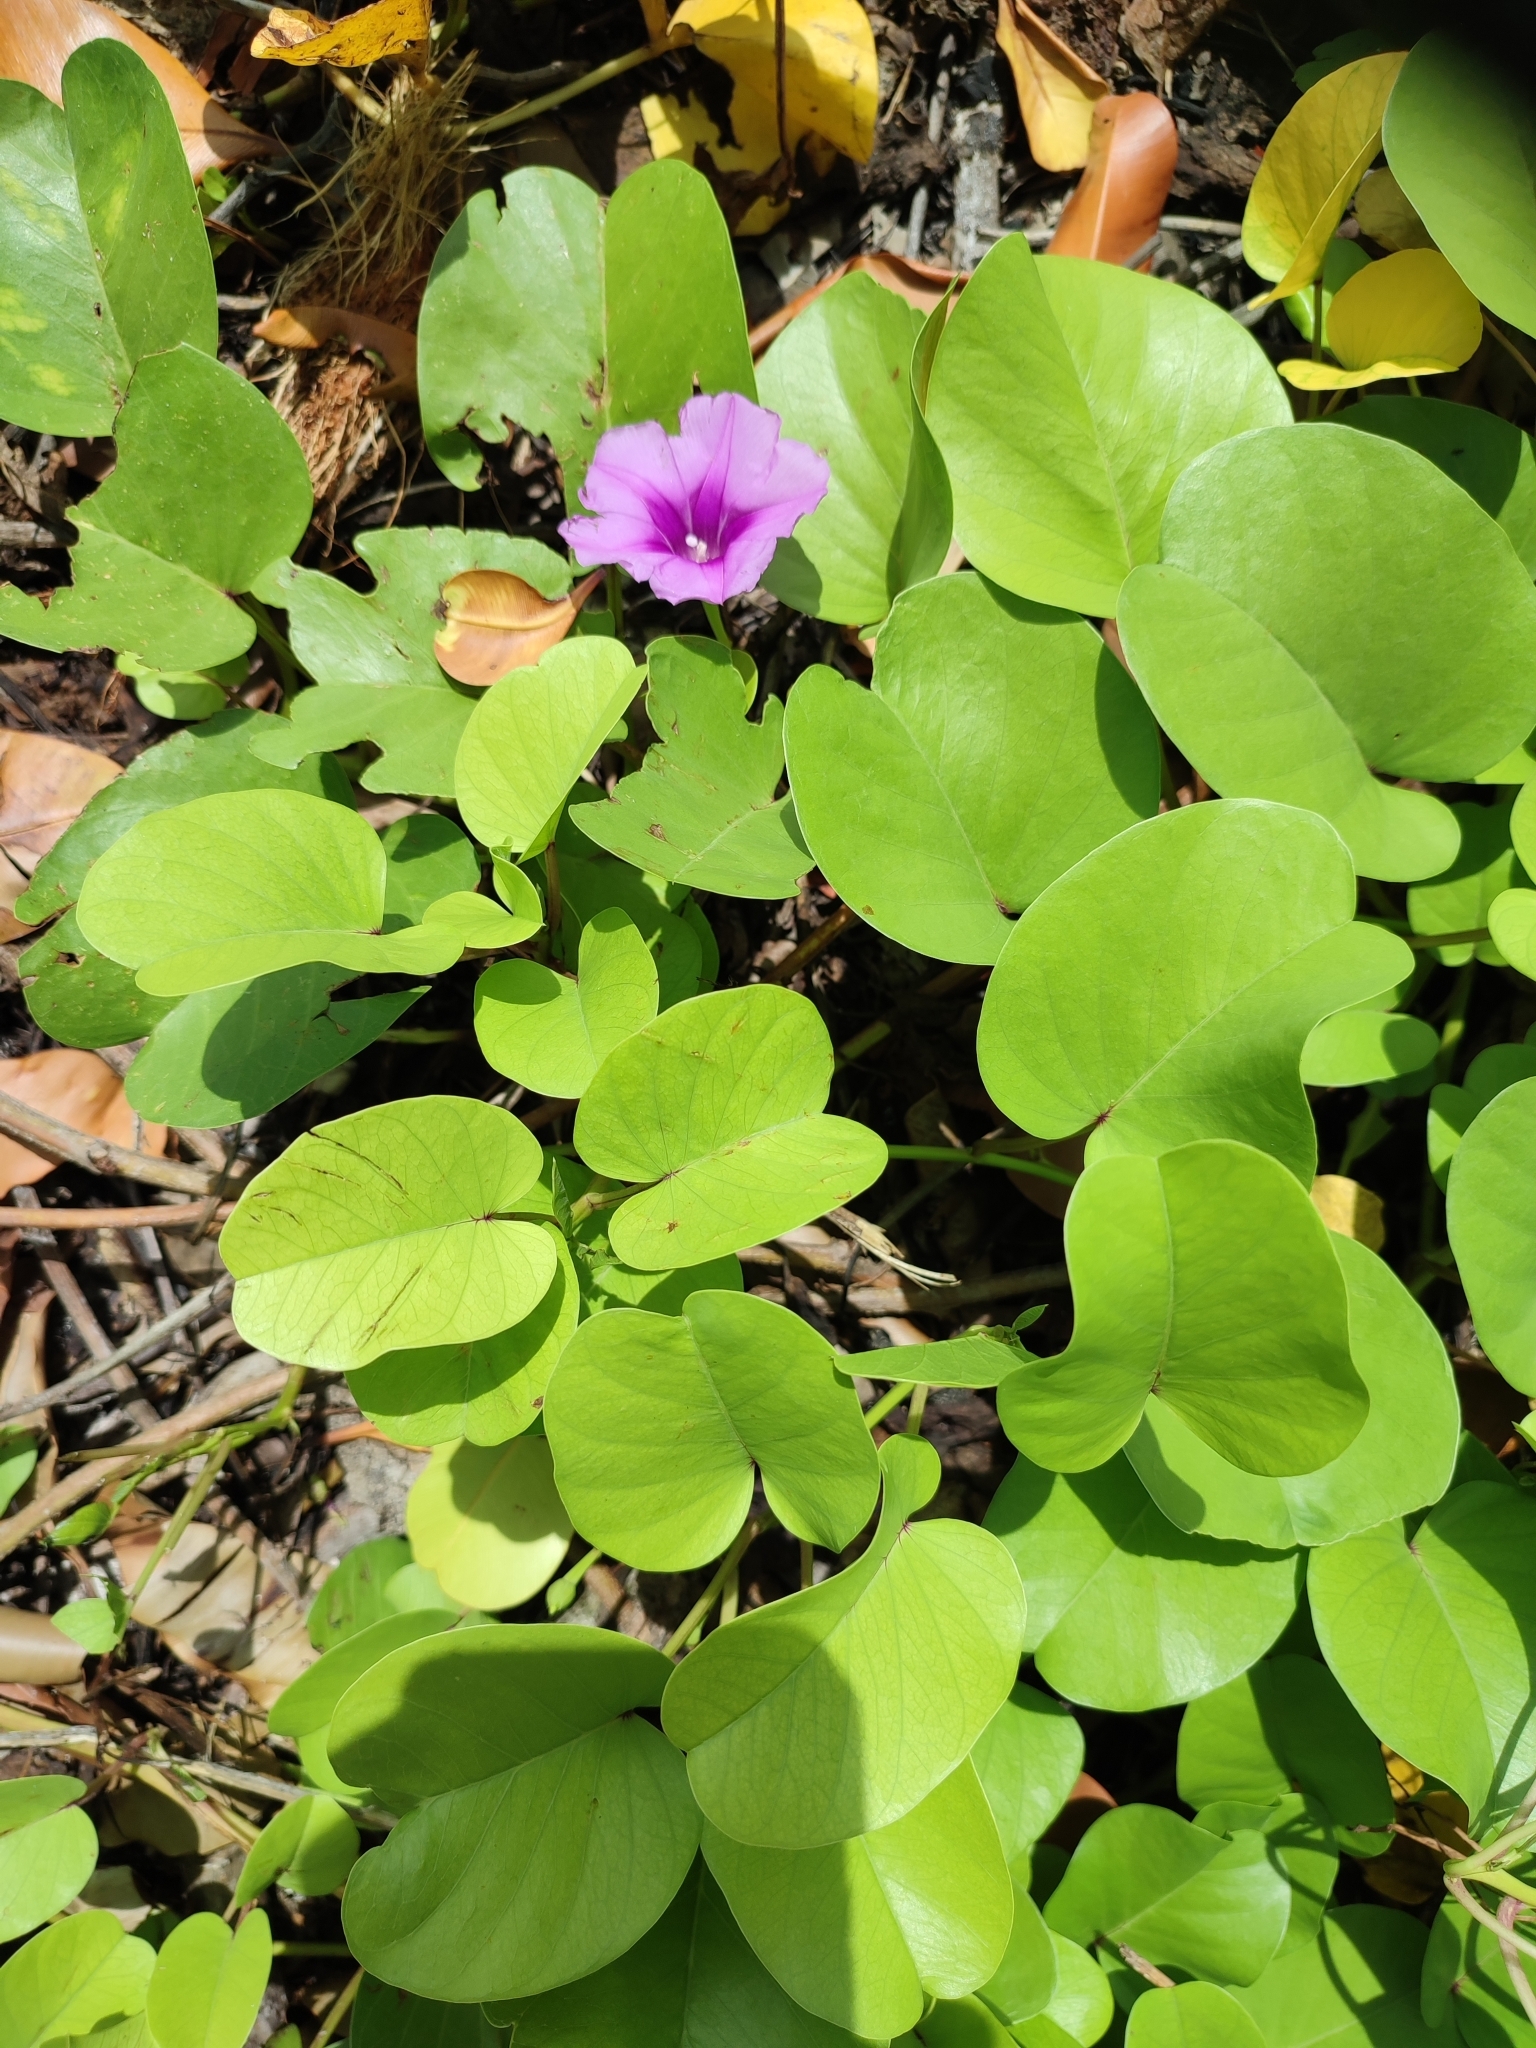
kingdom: Plantae
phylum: Tracheophyta
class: Magnoliopsida
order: Solanales
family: Convolvulaceae
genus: Ipomoea
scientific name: Ipomoea pes-caprae
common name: Beach morning glory
